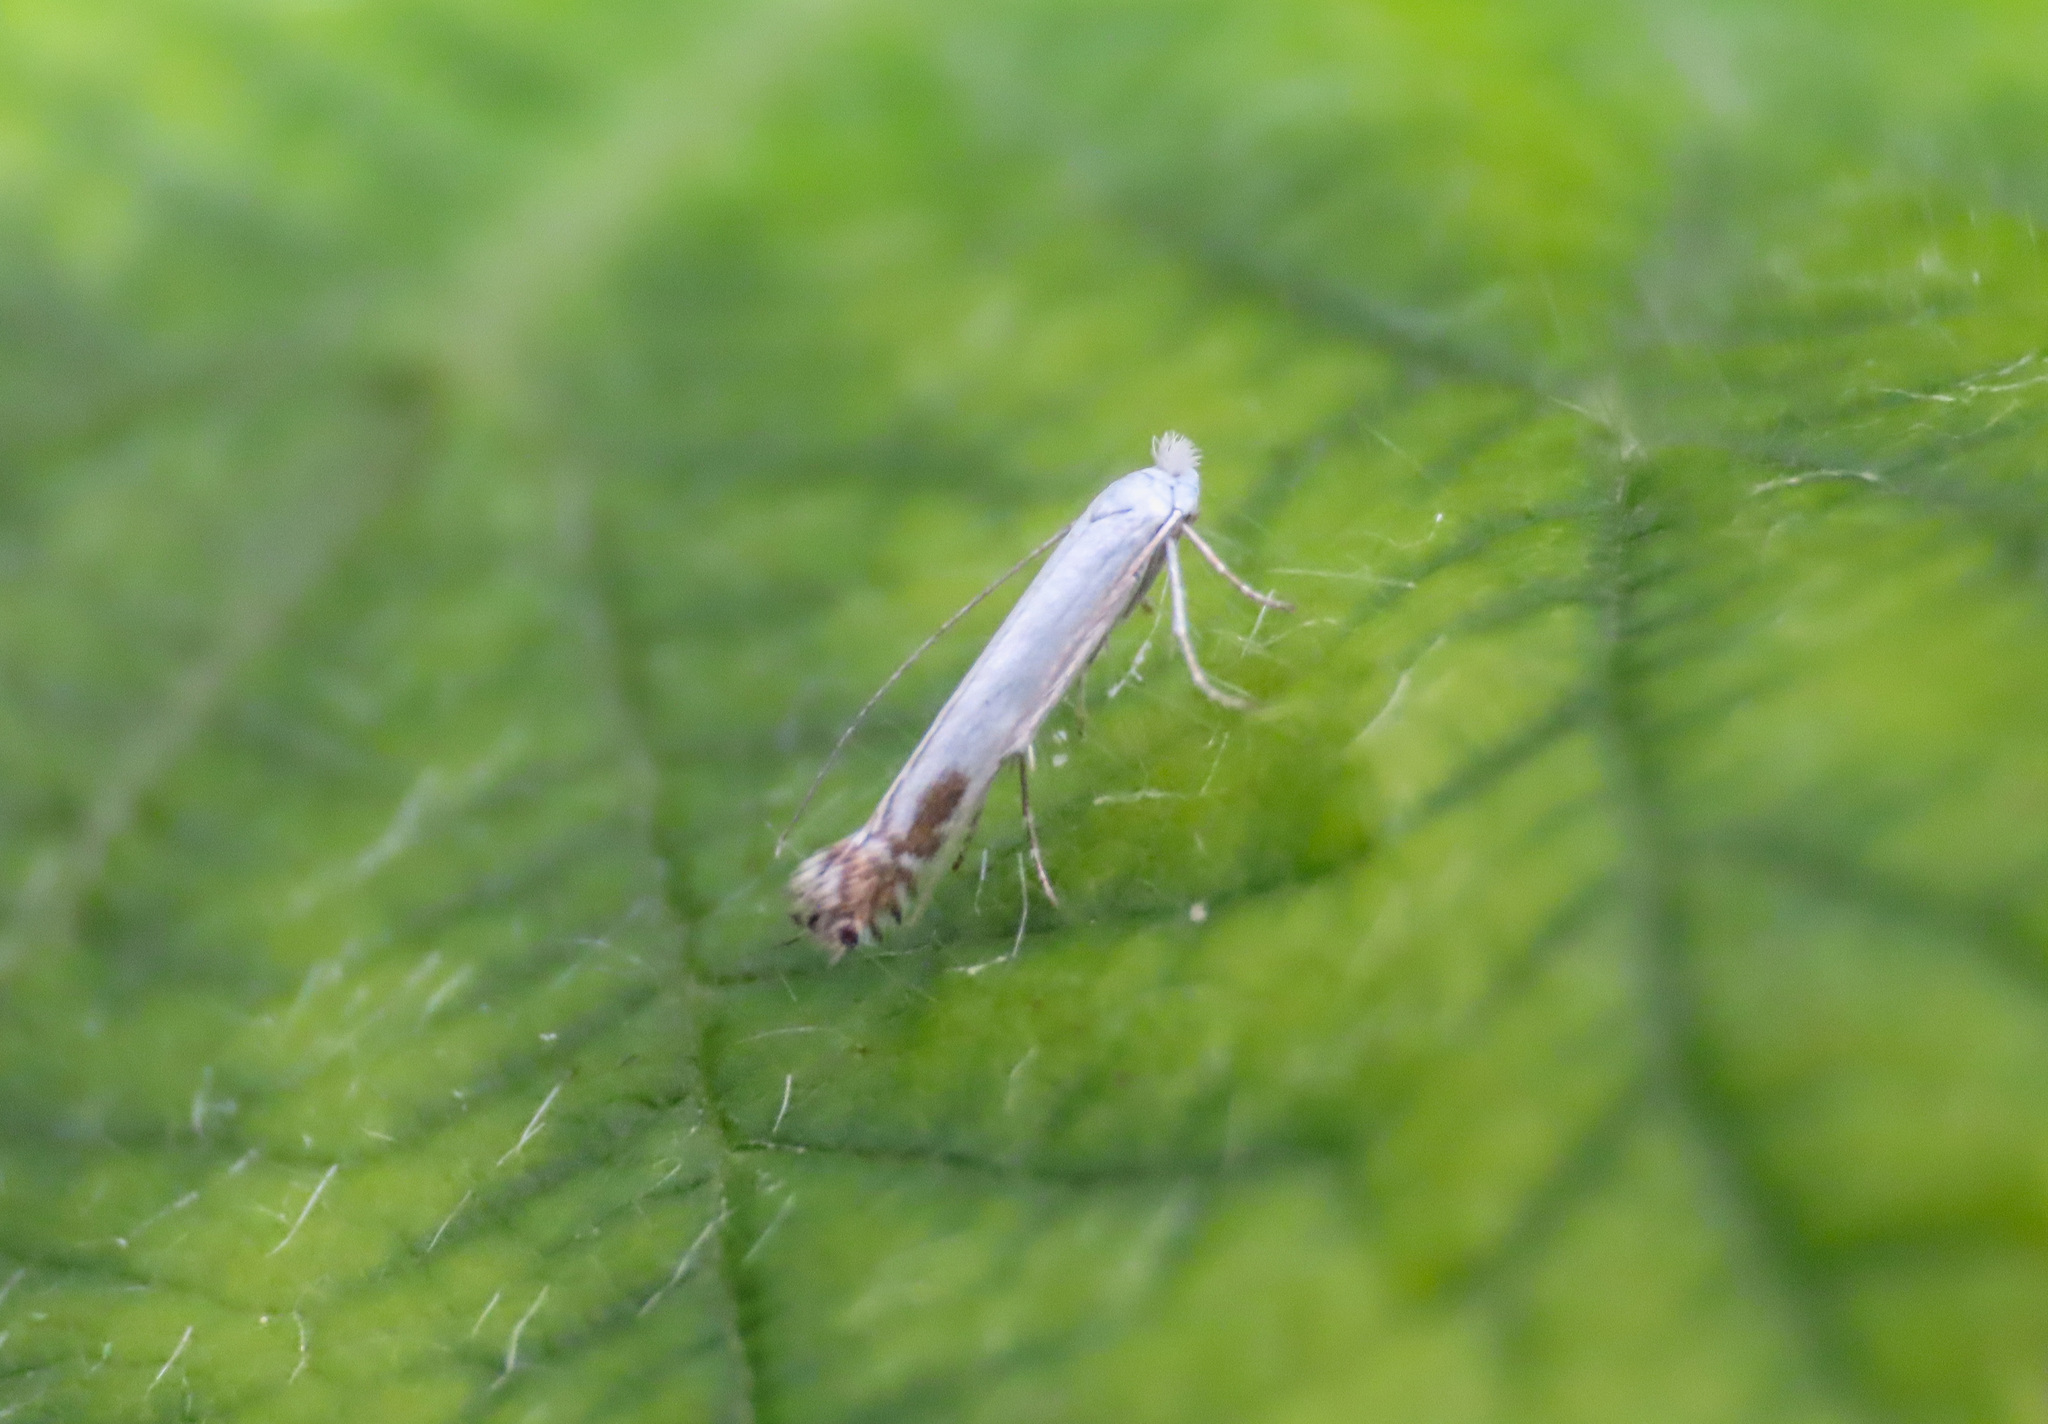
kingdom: Animalia
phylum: Arthropoda
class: Insecta
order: Lepidoptera
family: Lyonetiidae
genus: Lyonetia
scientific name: Lyonetia clerkella
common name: Apple leaf miner
